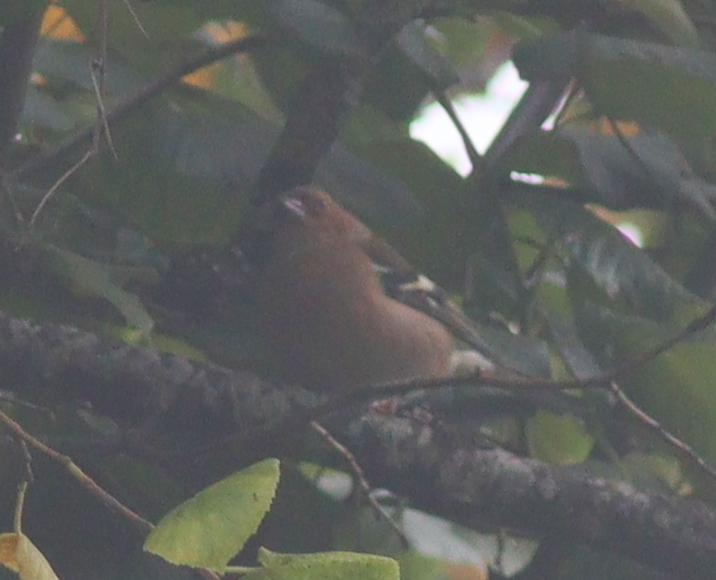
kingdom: Animalia
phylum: Chordata
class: Aves
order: Passeriformes
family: Fringillidae
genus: Fringilla
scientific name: Fringilla coelebs
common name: Common chaffinch
